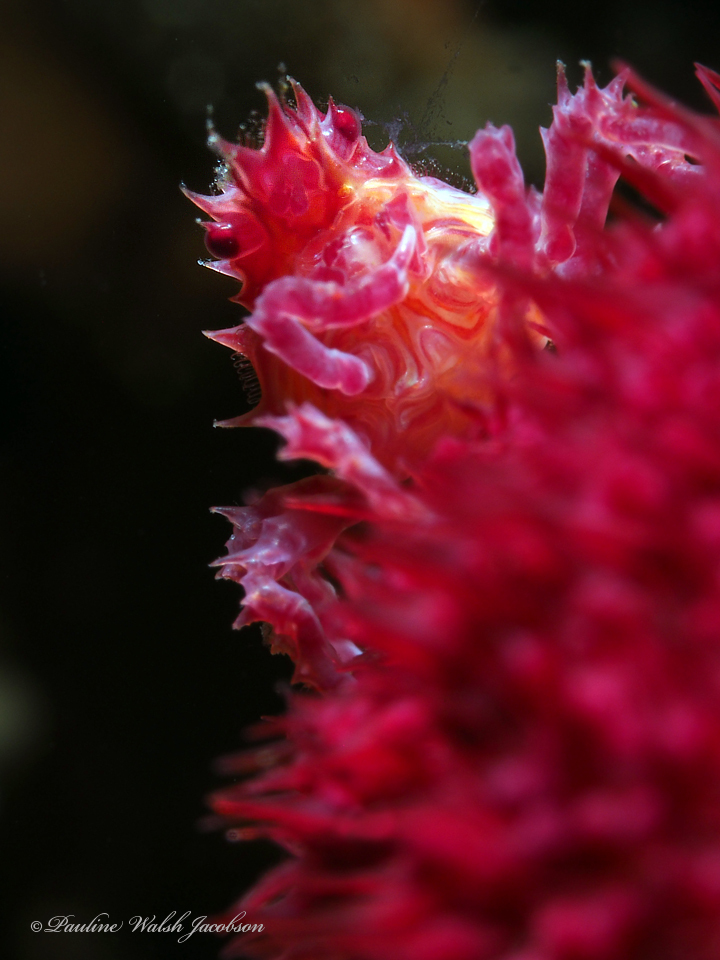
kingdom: Animalia
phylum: Arthropoda
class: Malacostraca
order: Decapoda
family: Epialtidae
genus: Hoplophrys
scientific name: Hoplophrys oatesii
